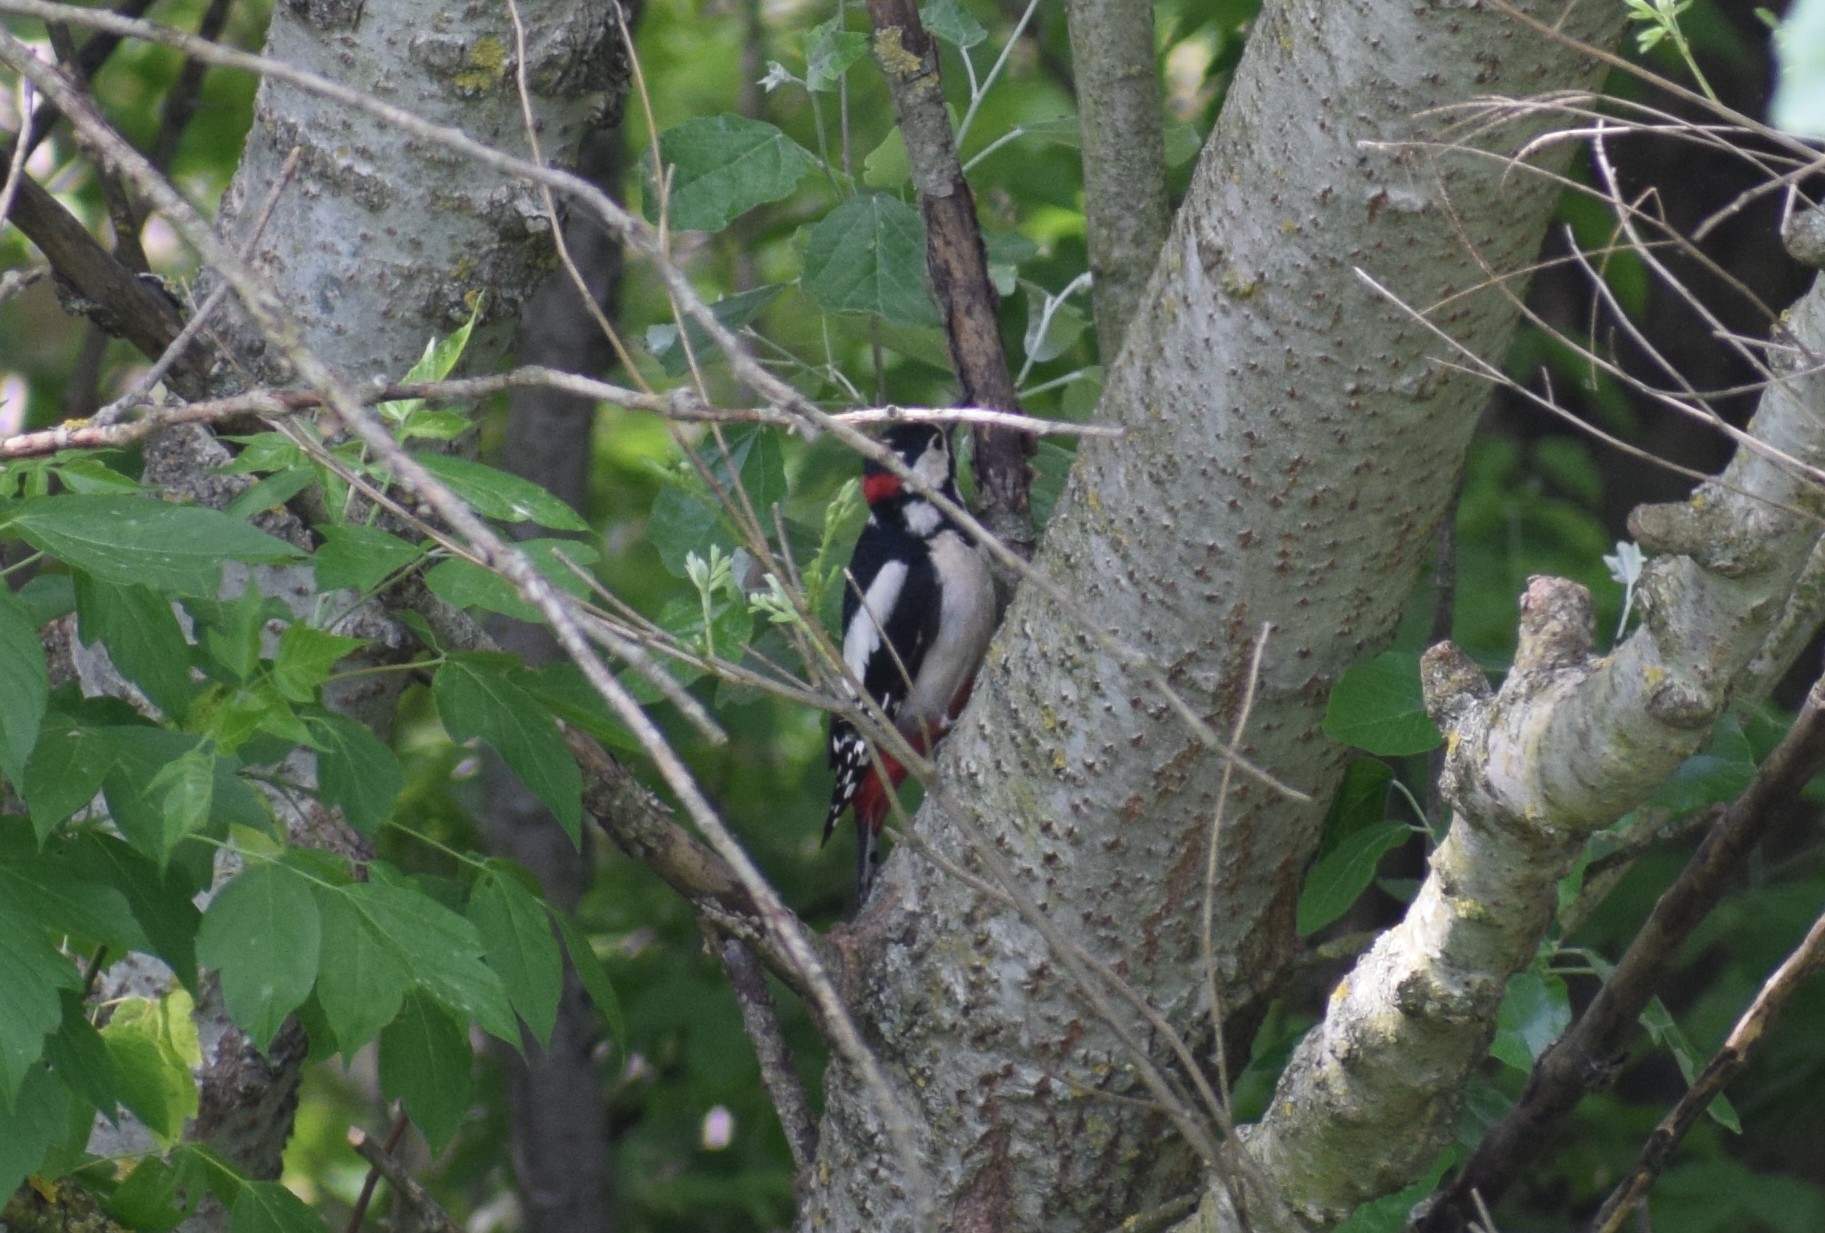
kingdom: Animalia
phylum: Chordata
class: Aves
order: Piciformes
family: Picidae
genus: Dendrocopos
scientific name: Dendrocopos major
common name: Great spotted woodpecker
